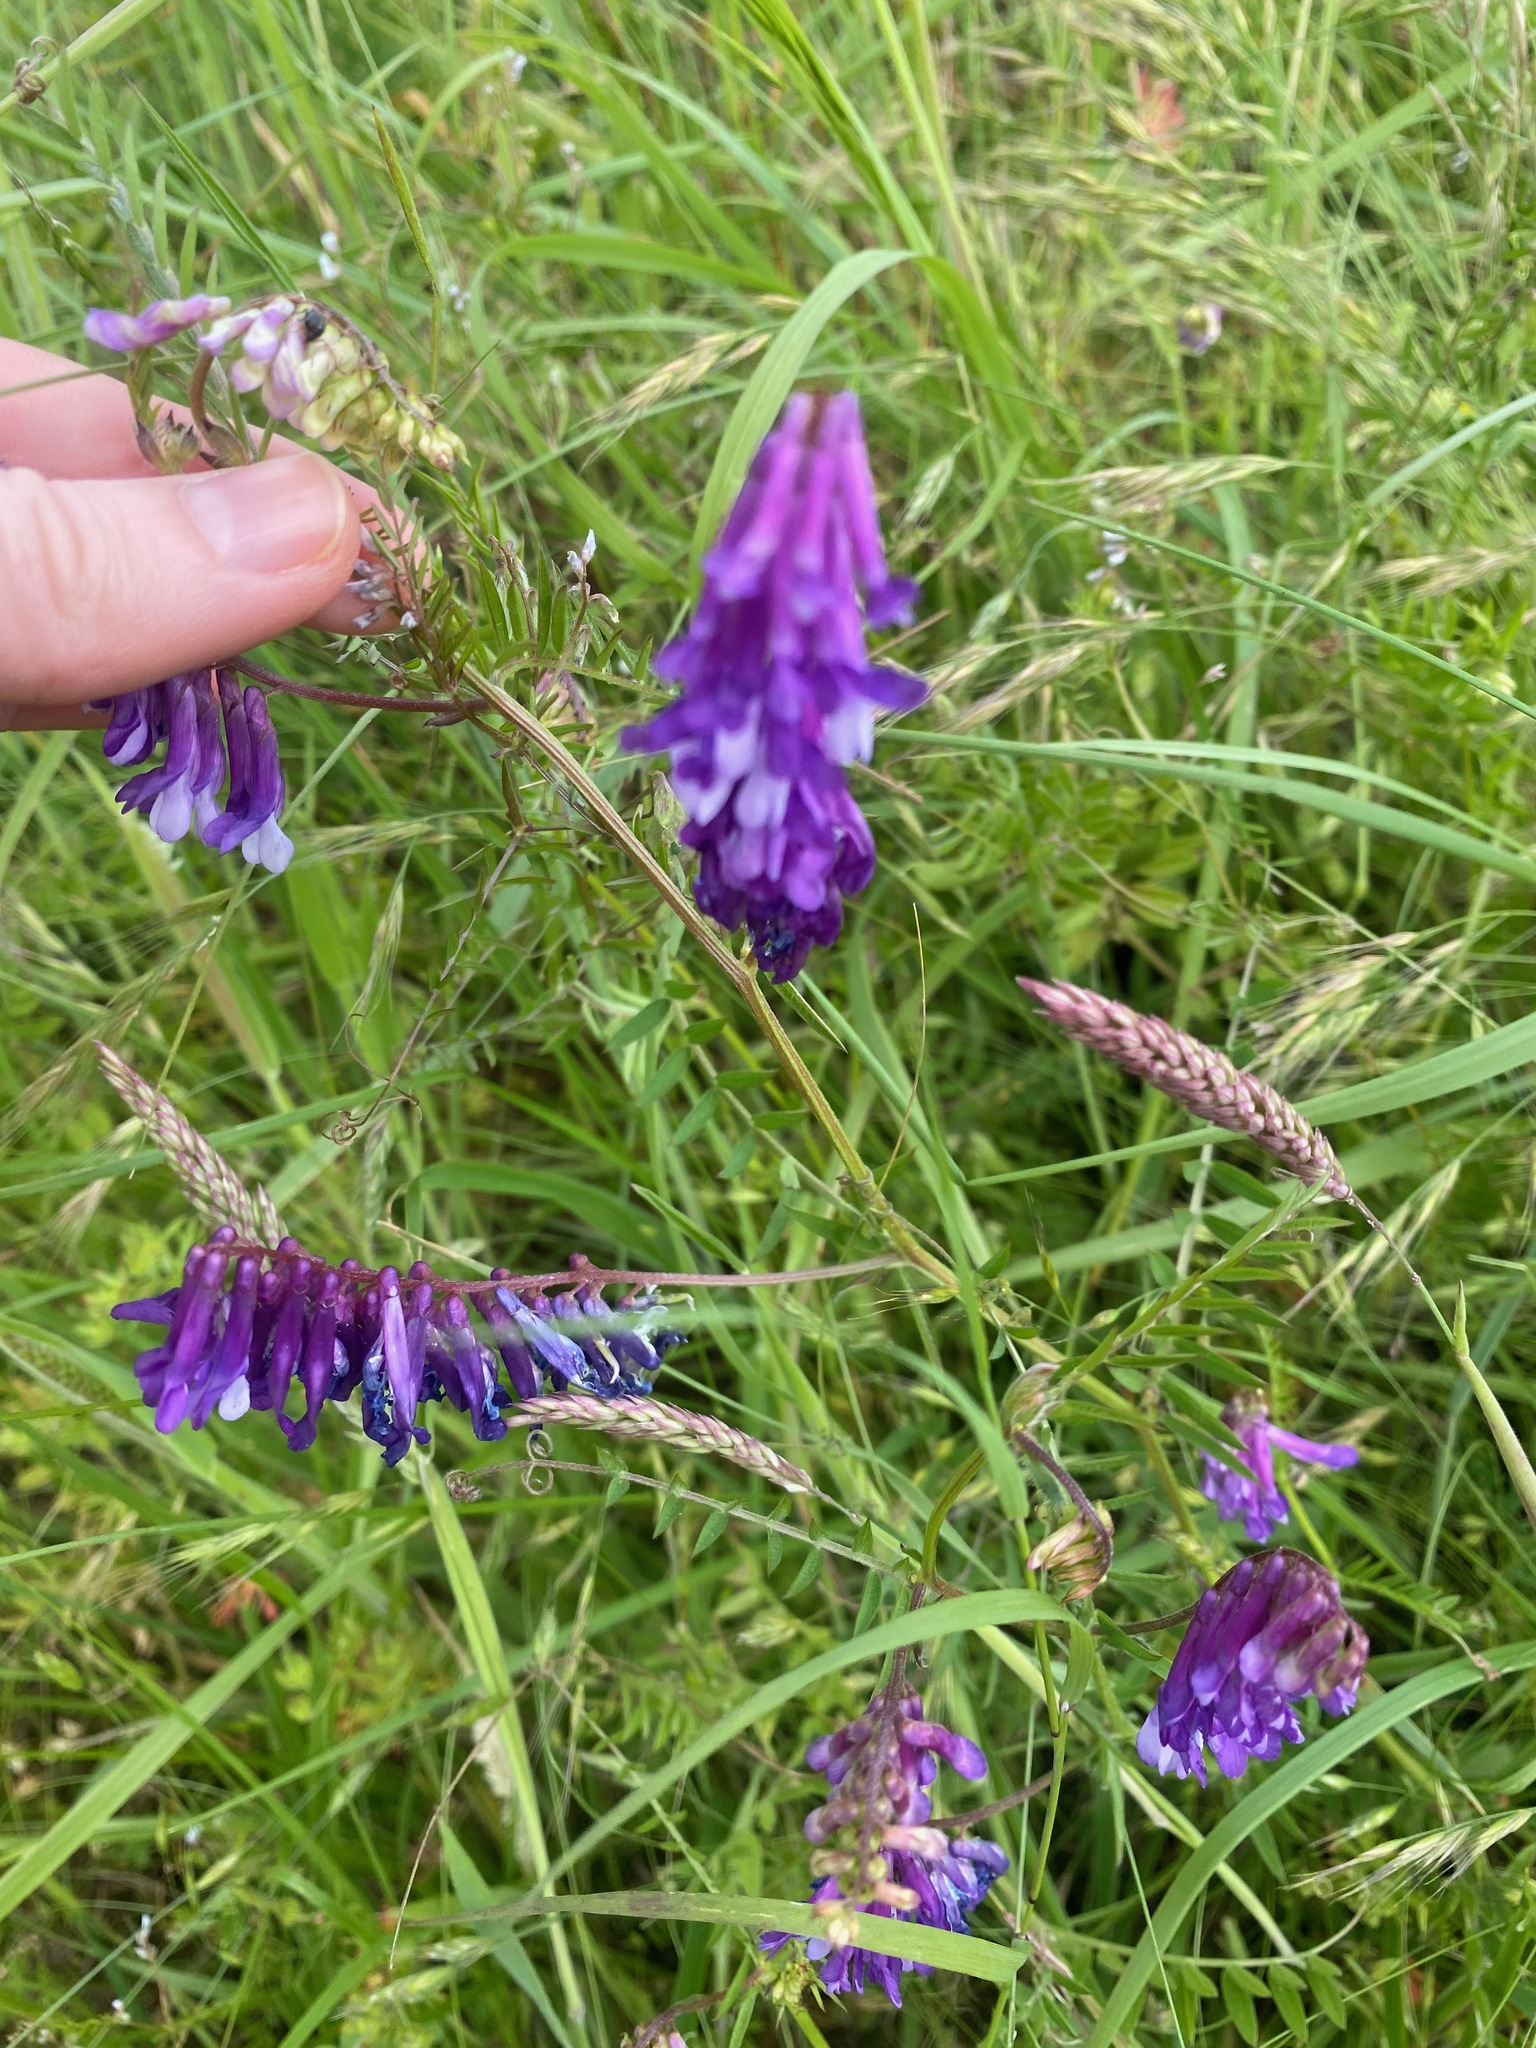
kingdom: Plantae
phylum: Tracheophyta
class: Magnoliopsida
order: Fabales
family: Fabaceae
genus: Vicia
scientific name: Vicia villosa
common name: Fodder vetch
